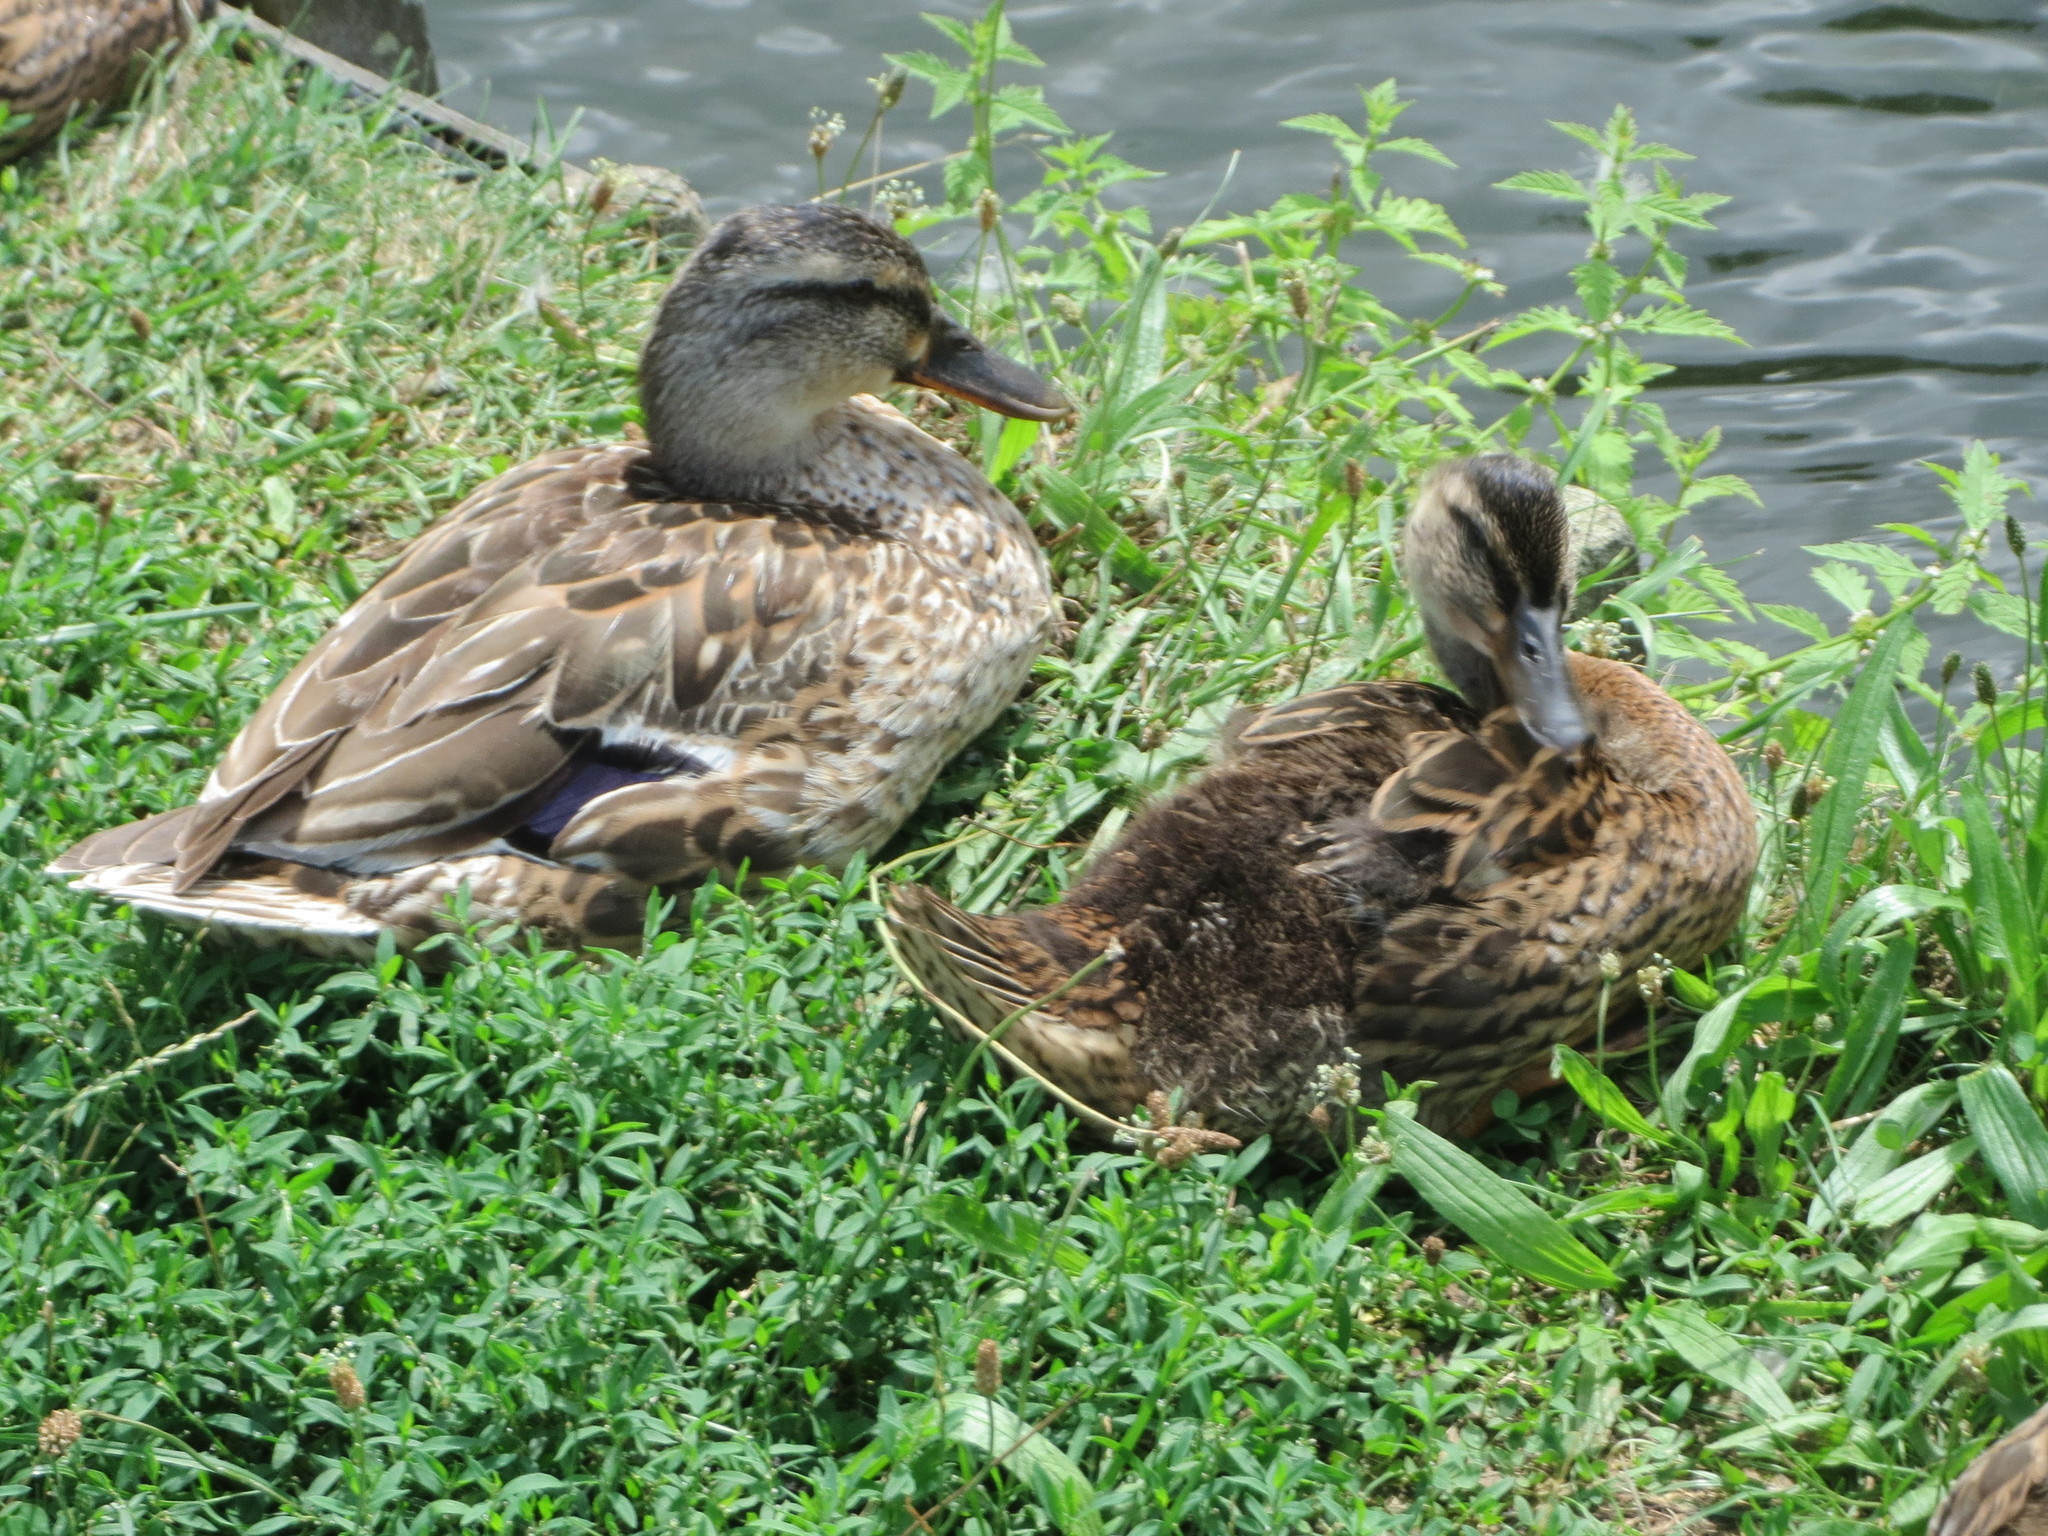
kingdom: Animalia
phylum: Chordata
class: Aves
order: Anseriformes
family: Anatidae
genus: Anas
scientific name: Anas platyrhynchos
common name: Mallard
